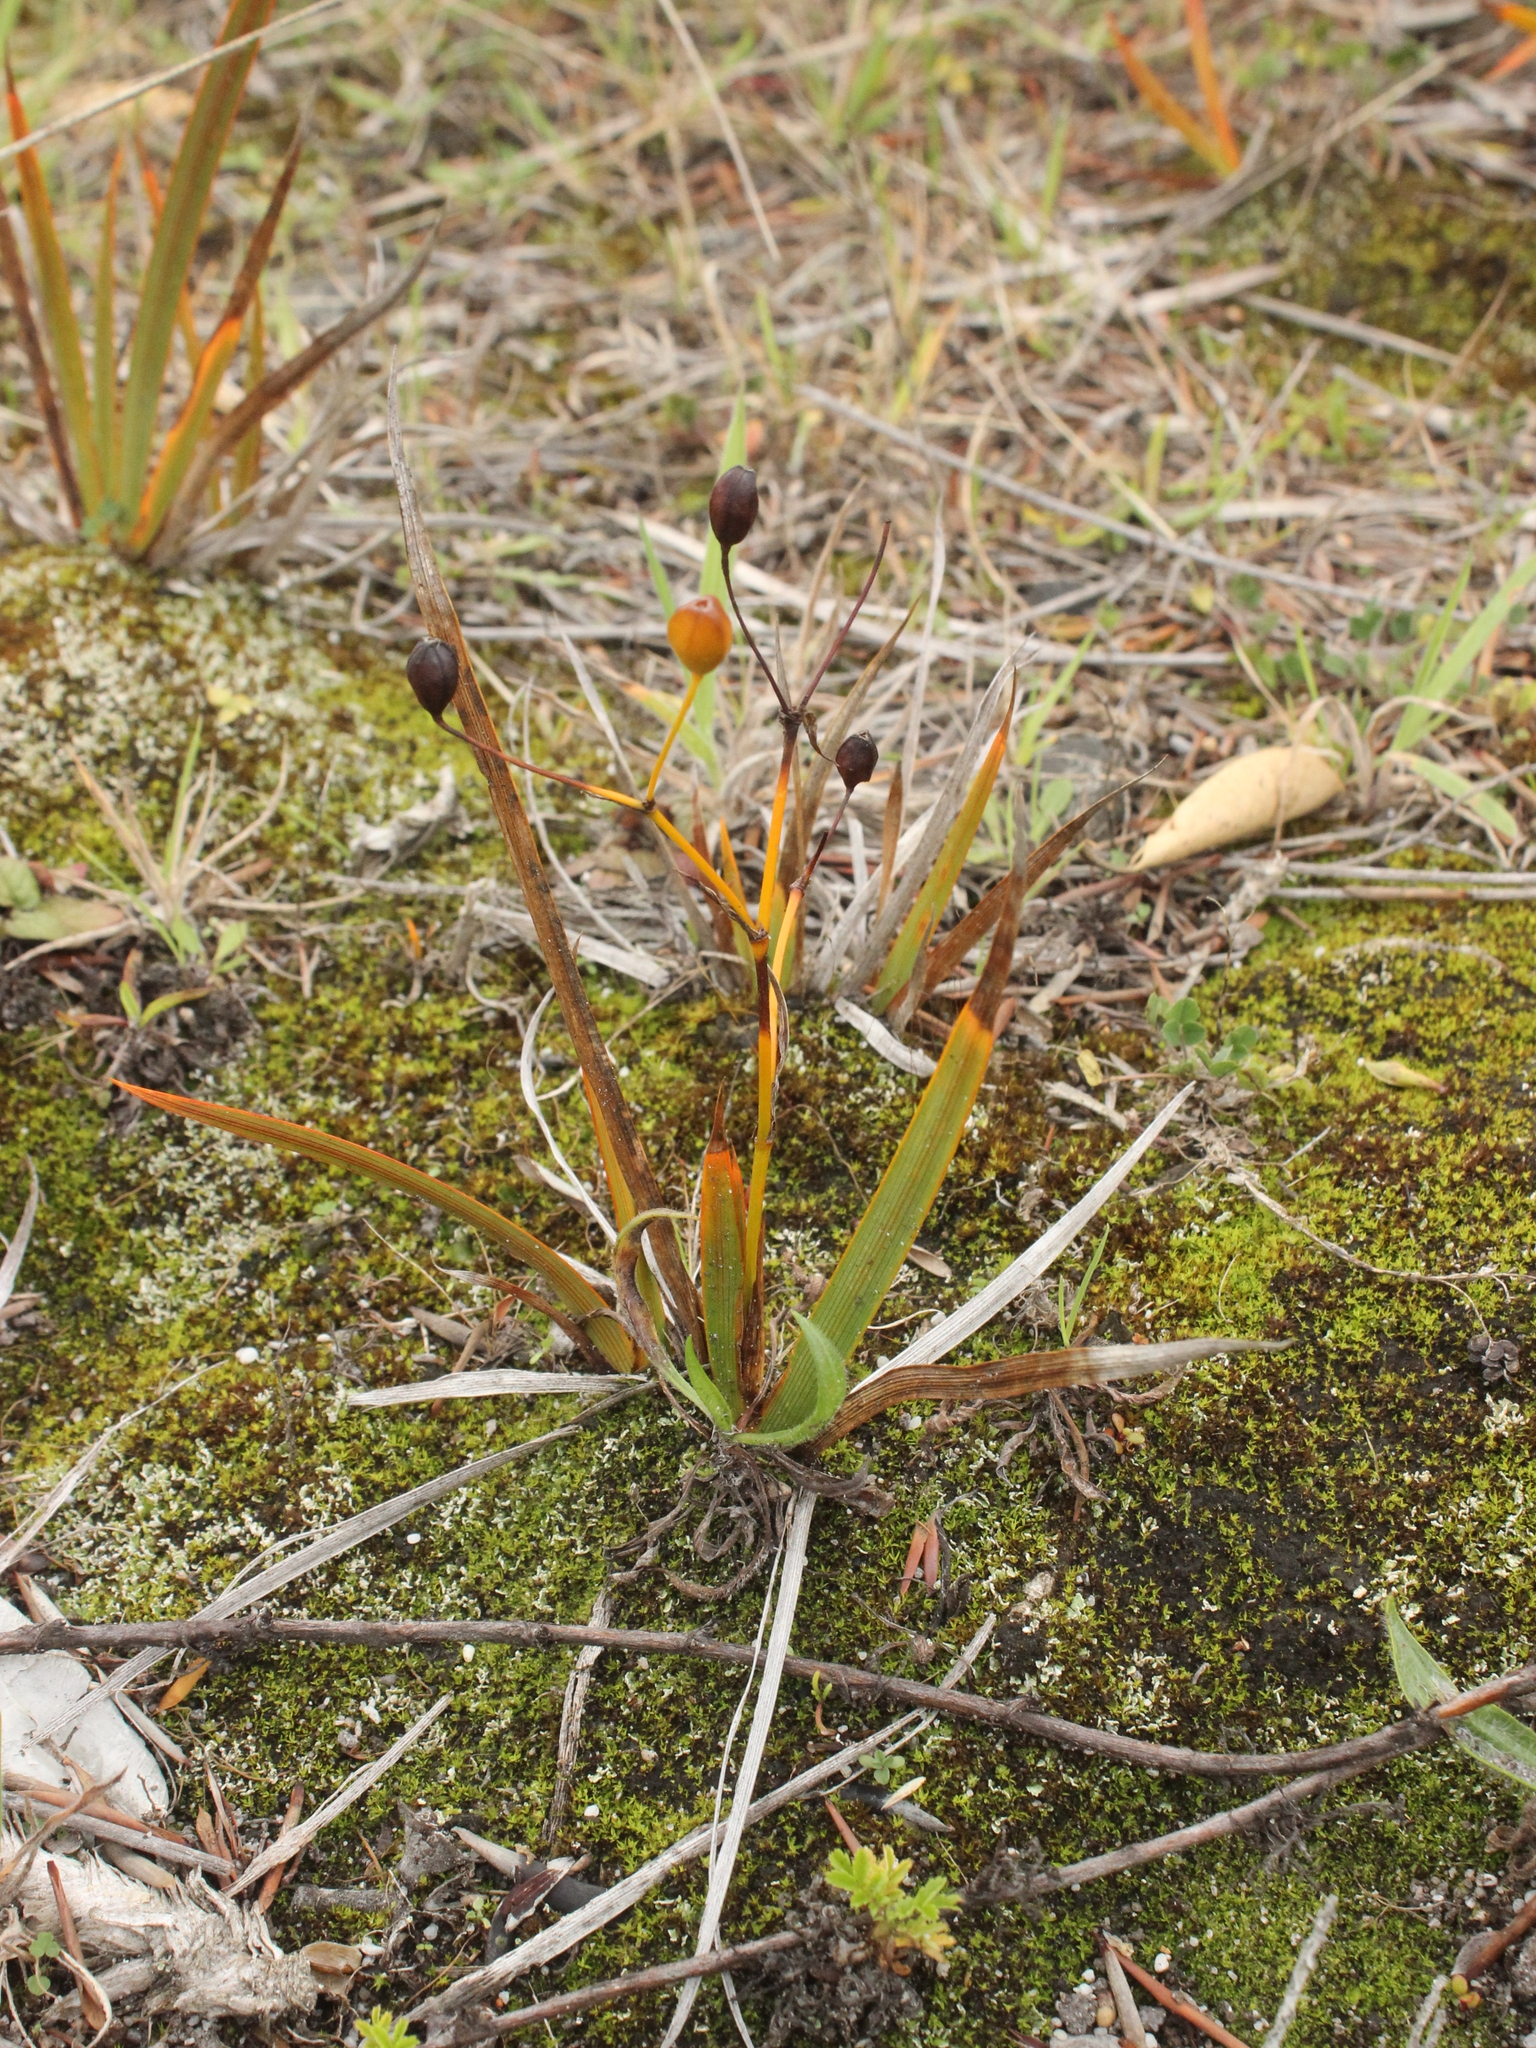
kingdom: Plantae
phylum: Tracheophyta
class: Liliopsida
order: Asparagales
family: Iridaceae
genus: Libertia
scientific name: Libertia peregrinans
